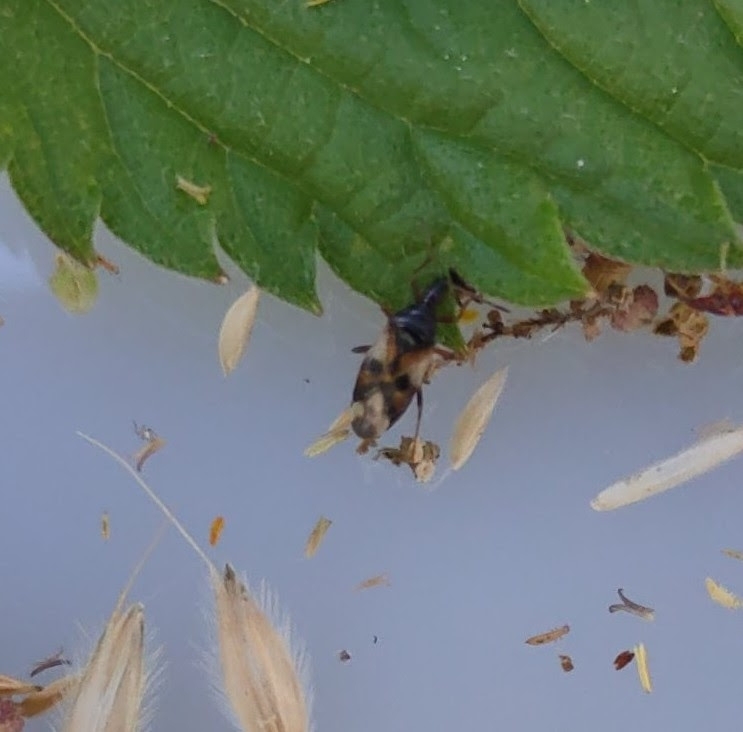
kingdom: Animalia
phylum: Arthropoda
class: Insecta
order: Hemiptera
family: Anthocoridae
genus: Anthocoris
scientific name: Anthocoris nemorum
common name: Minute pirate bug
